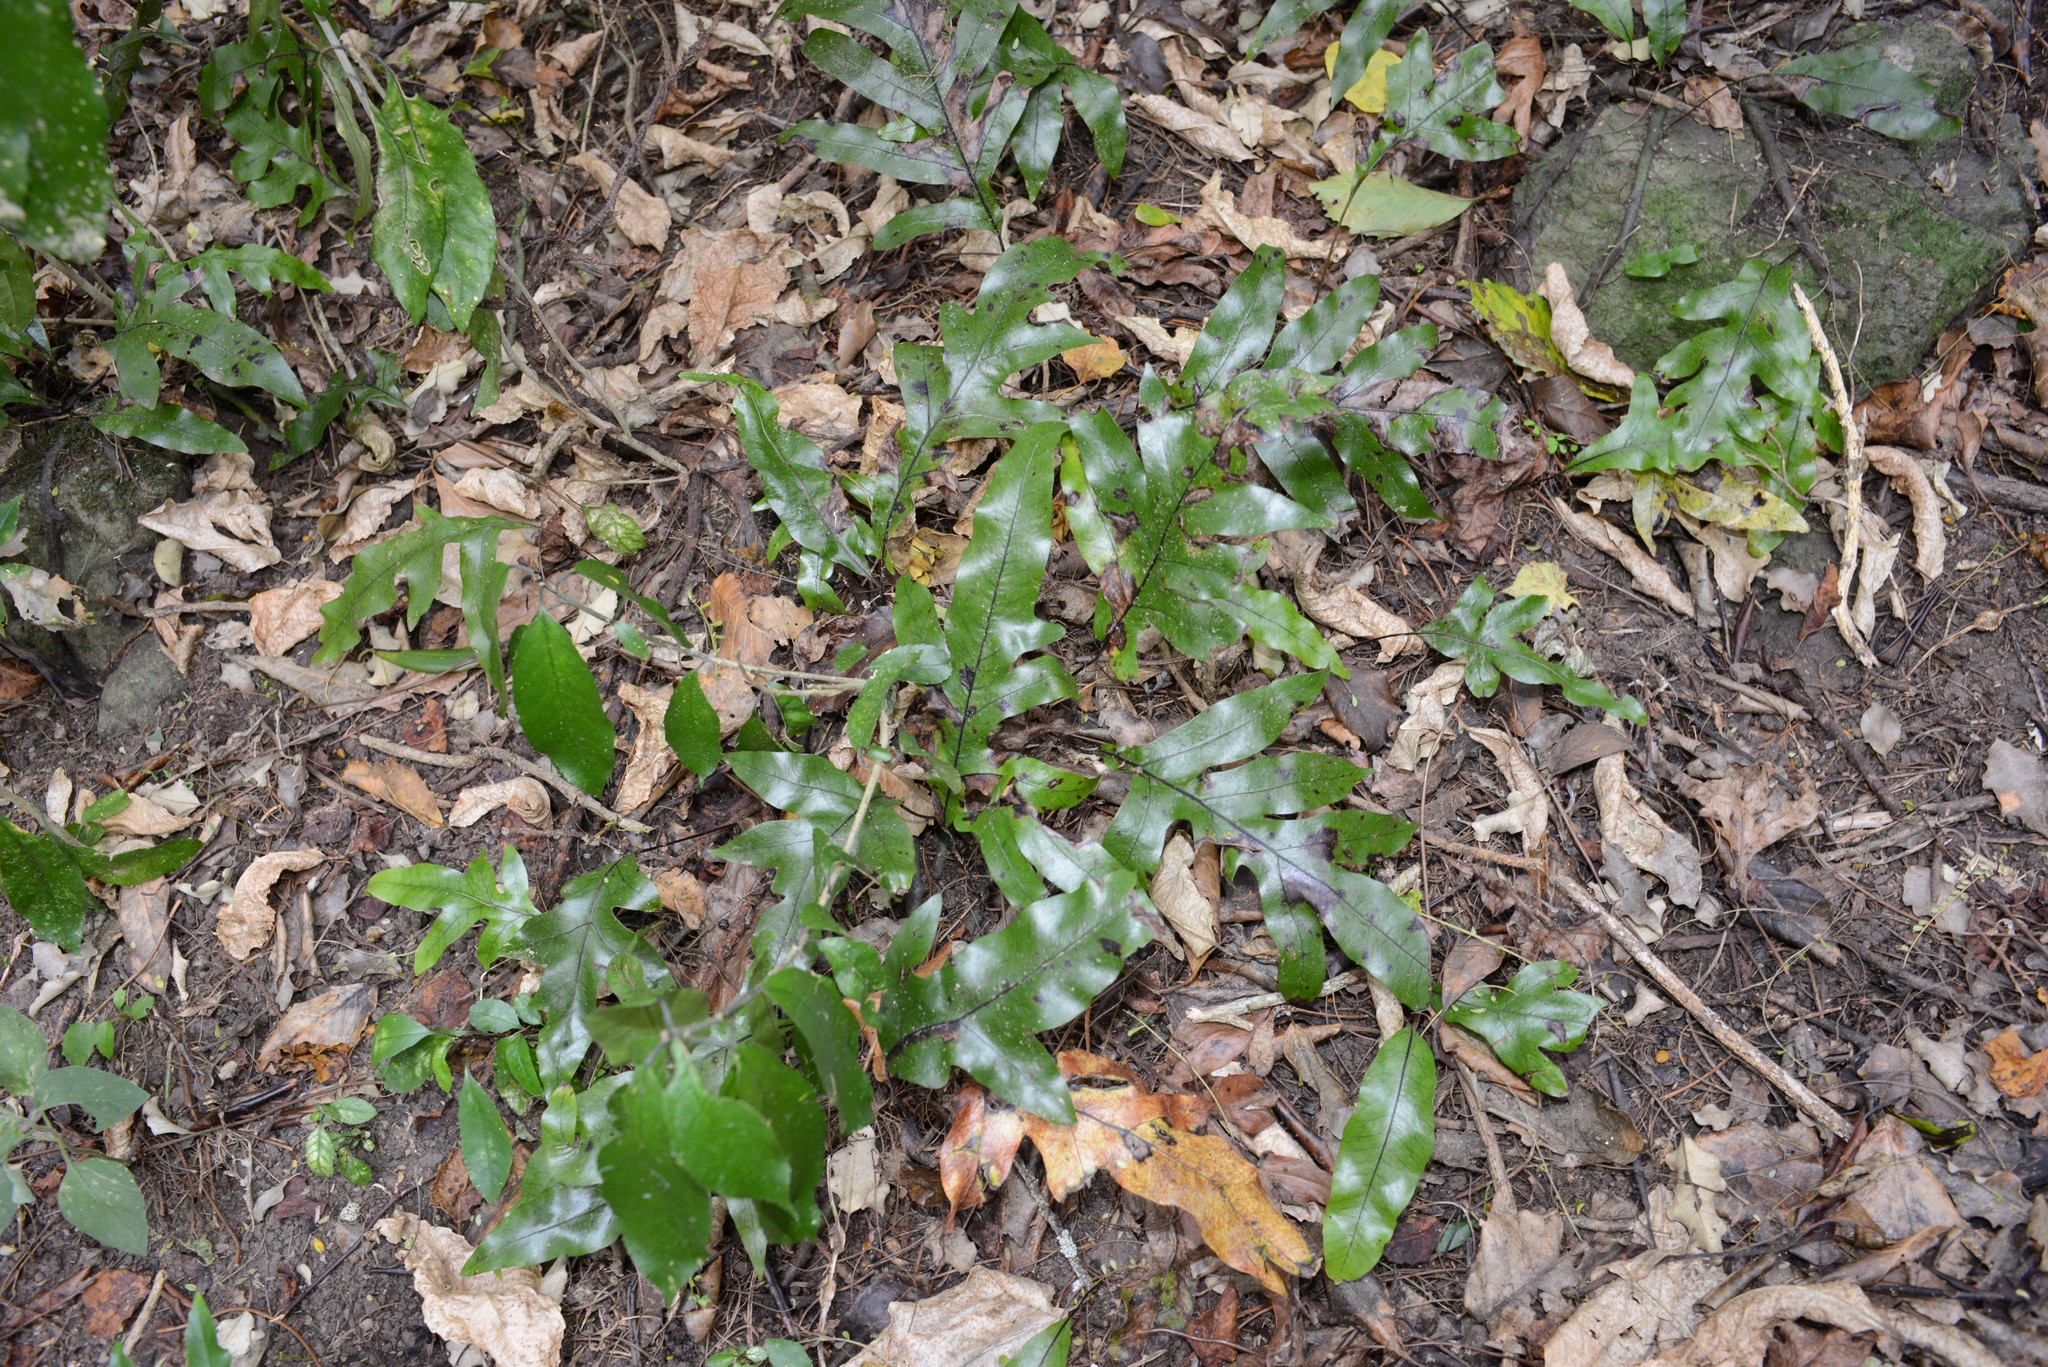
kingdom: Plantae
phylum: Tracheophyta
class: Polypodiopsida
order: Polypodiales
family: Polypodiaceae
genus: Lecanopteris
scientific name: Lecanopteris pustulata
